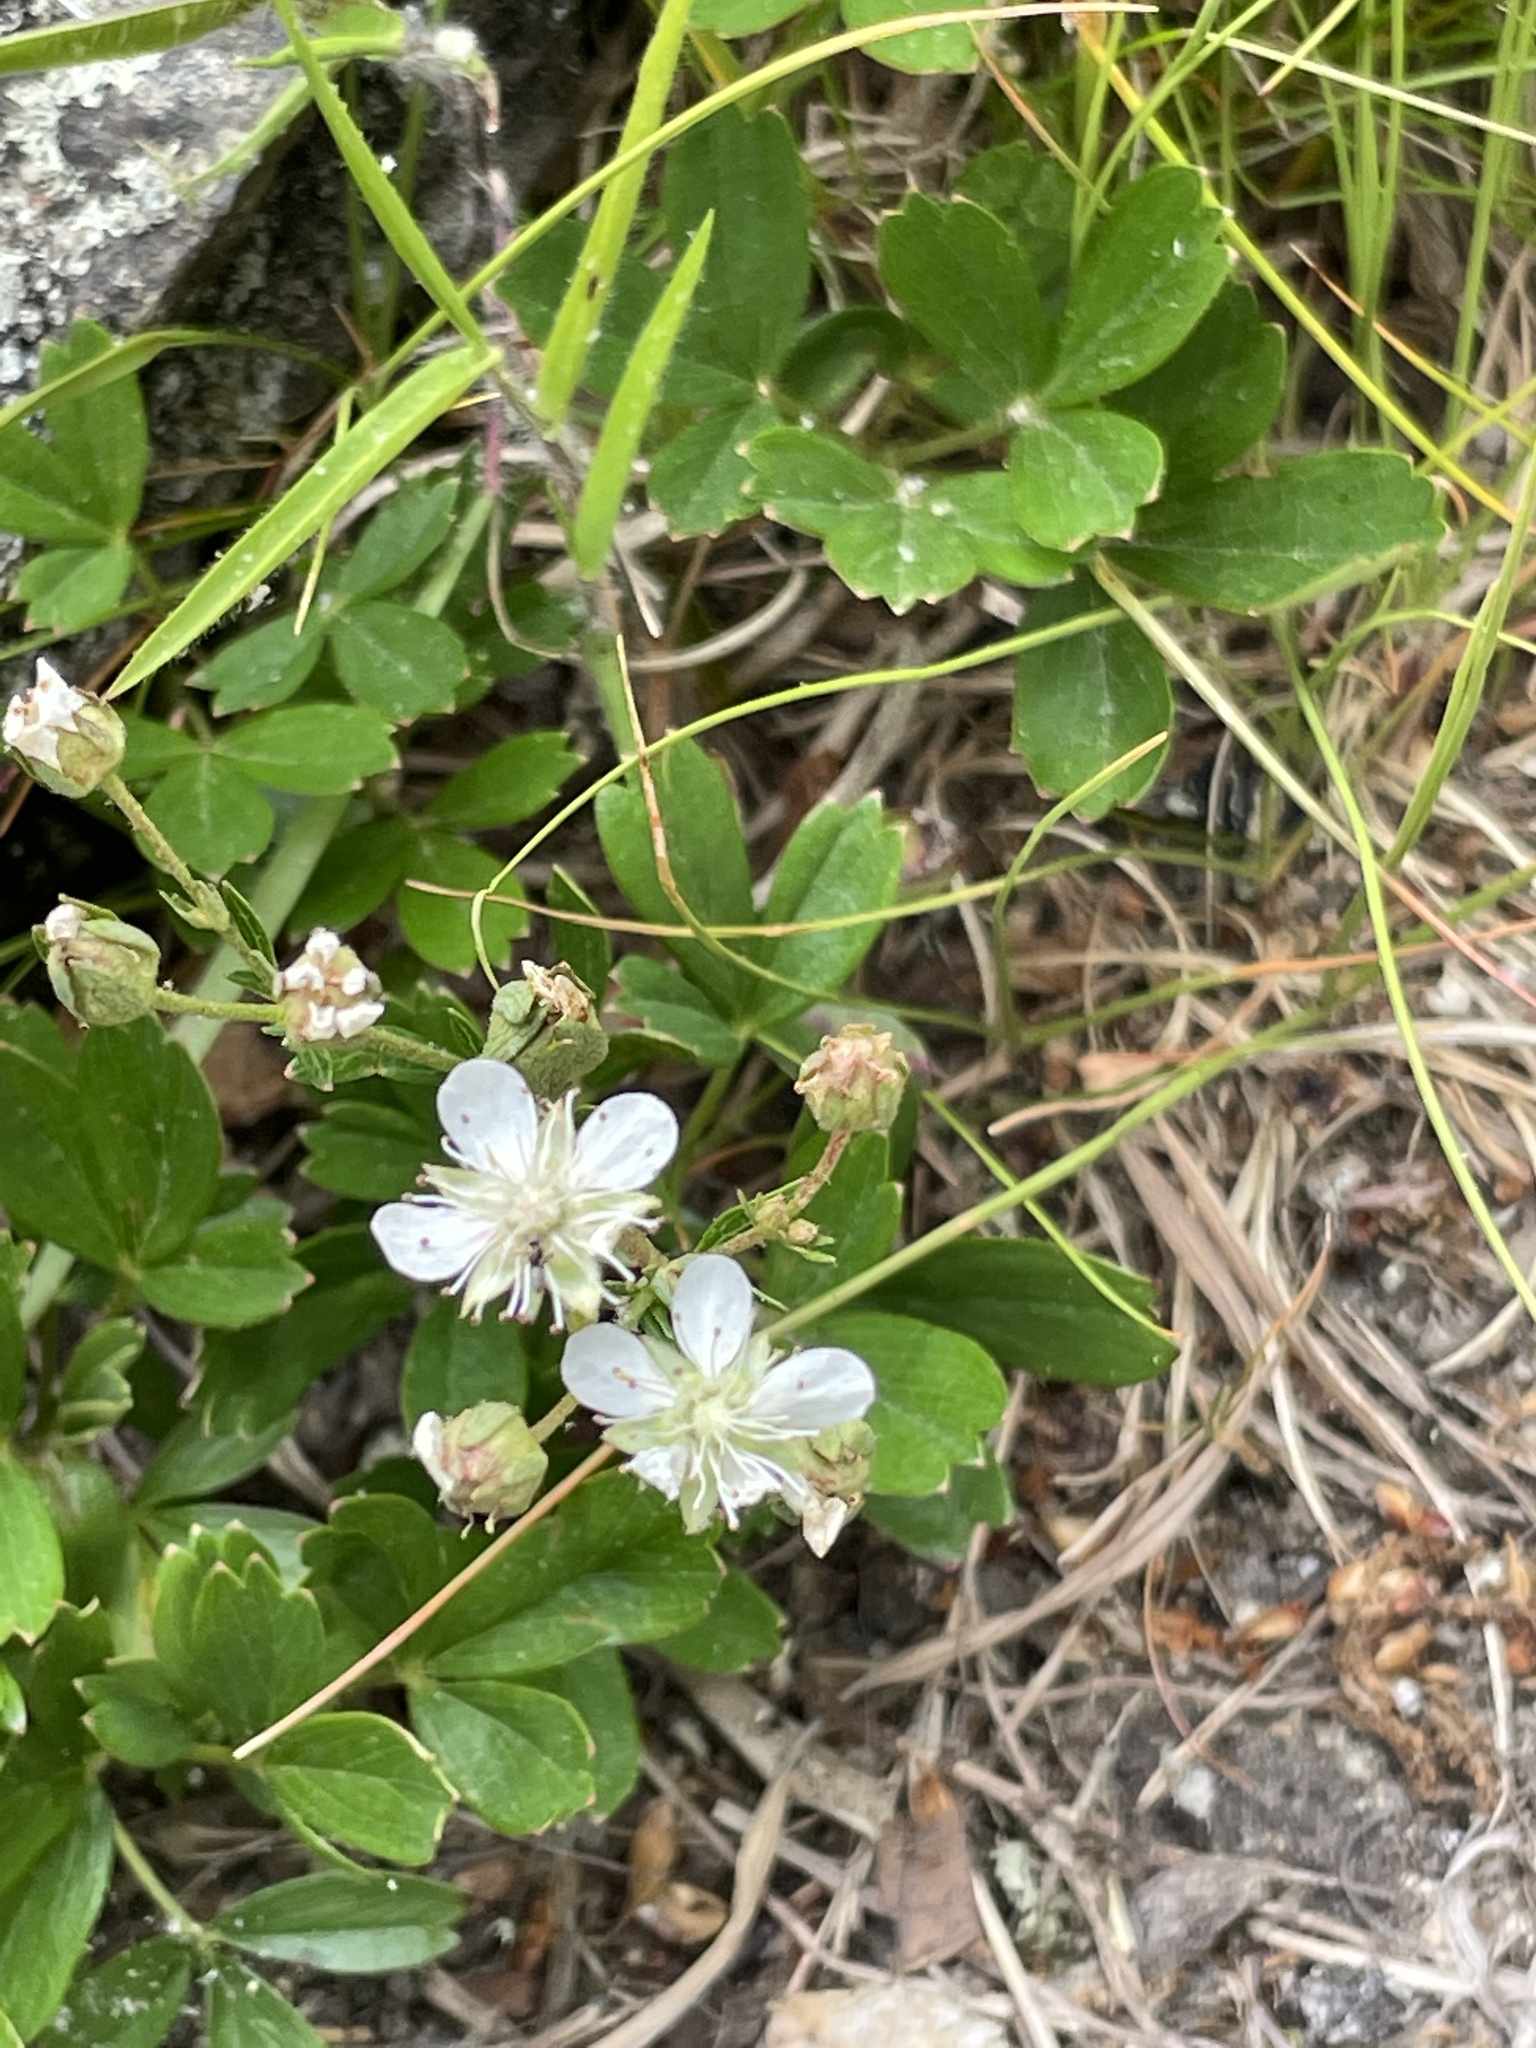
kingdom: Plantae
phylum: Tracheophyta
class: Magnoliopsida
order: Rosales
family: Rosaceae
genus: Sibbaldia
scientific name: Sibbaldia tridentata
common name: Three-toothed cinquefoil
